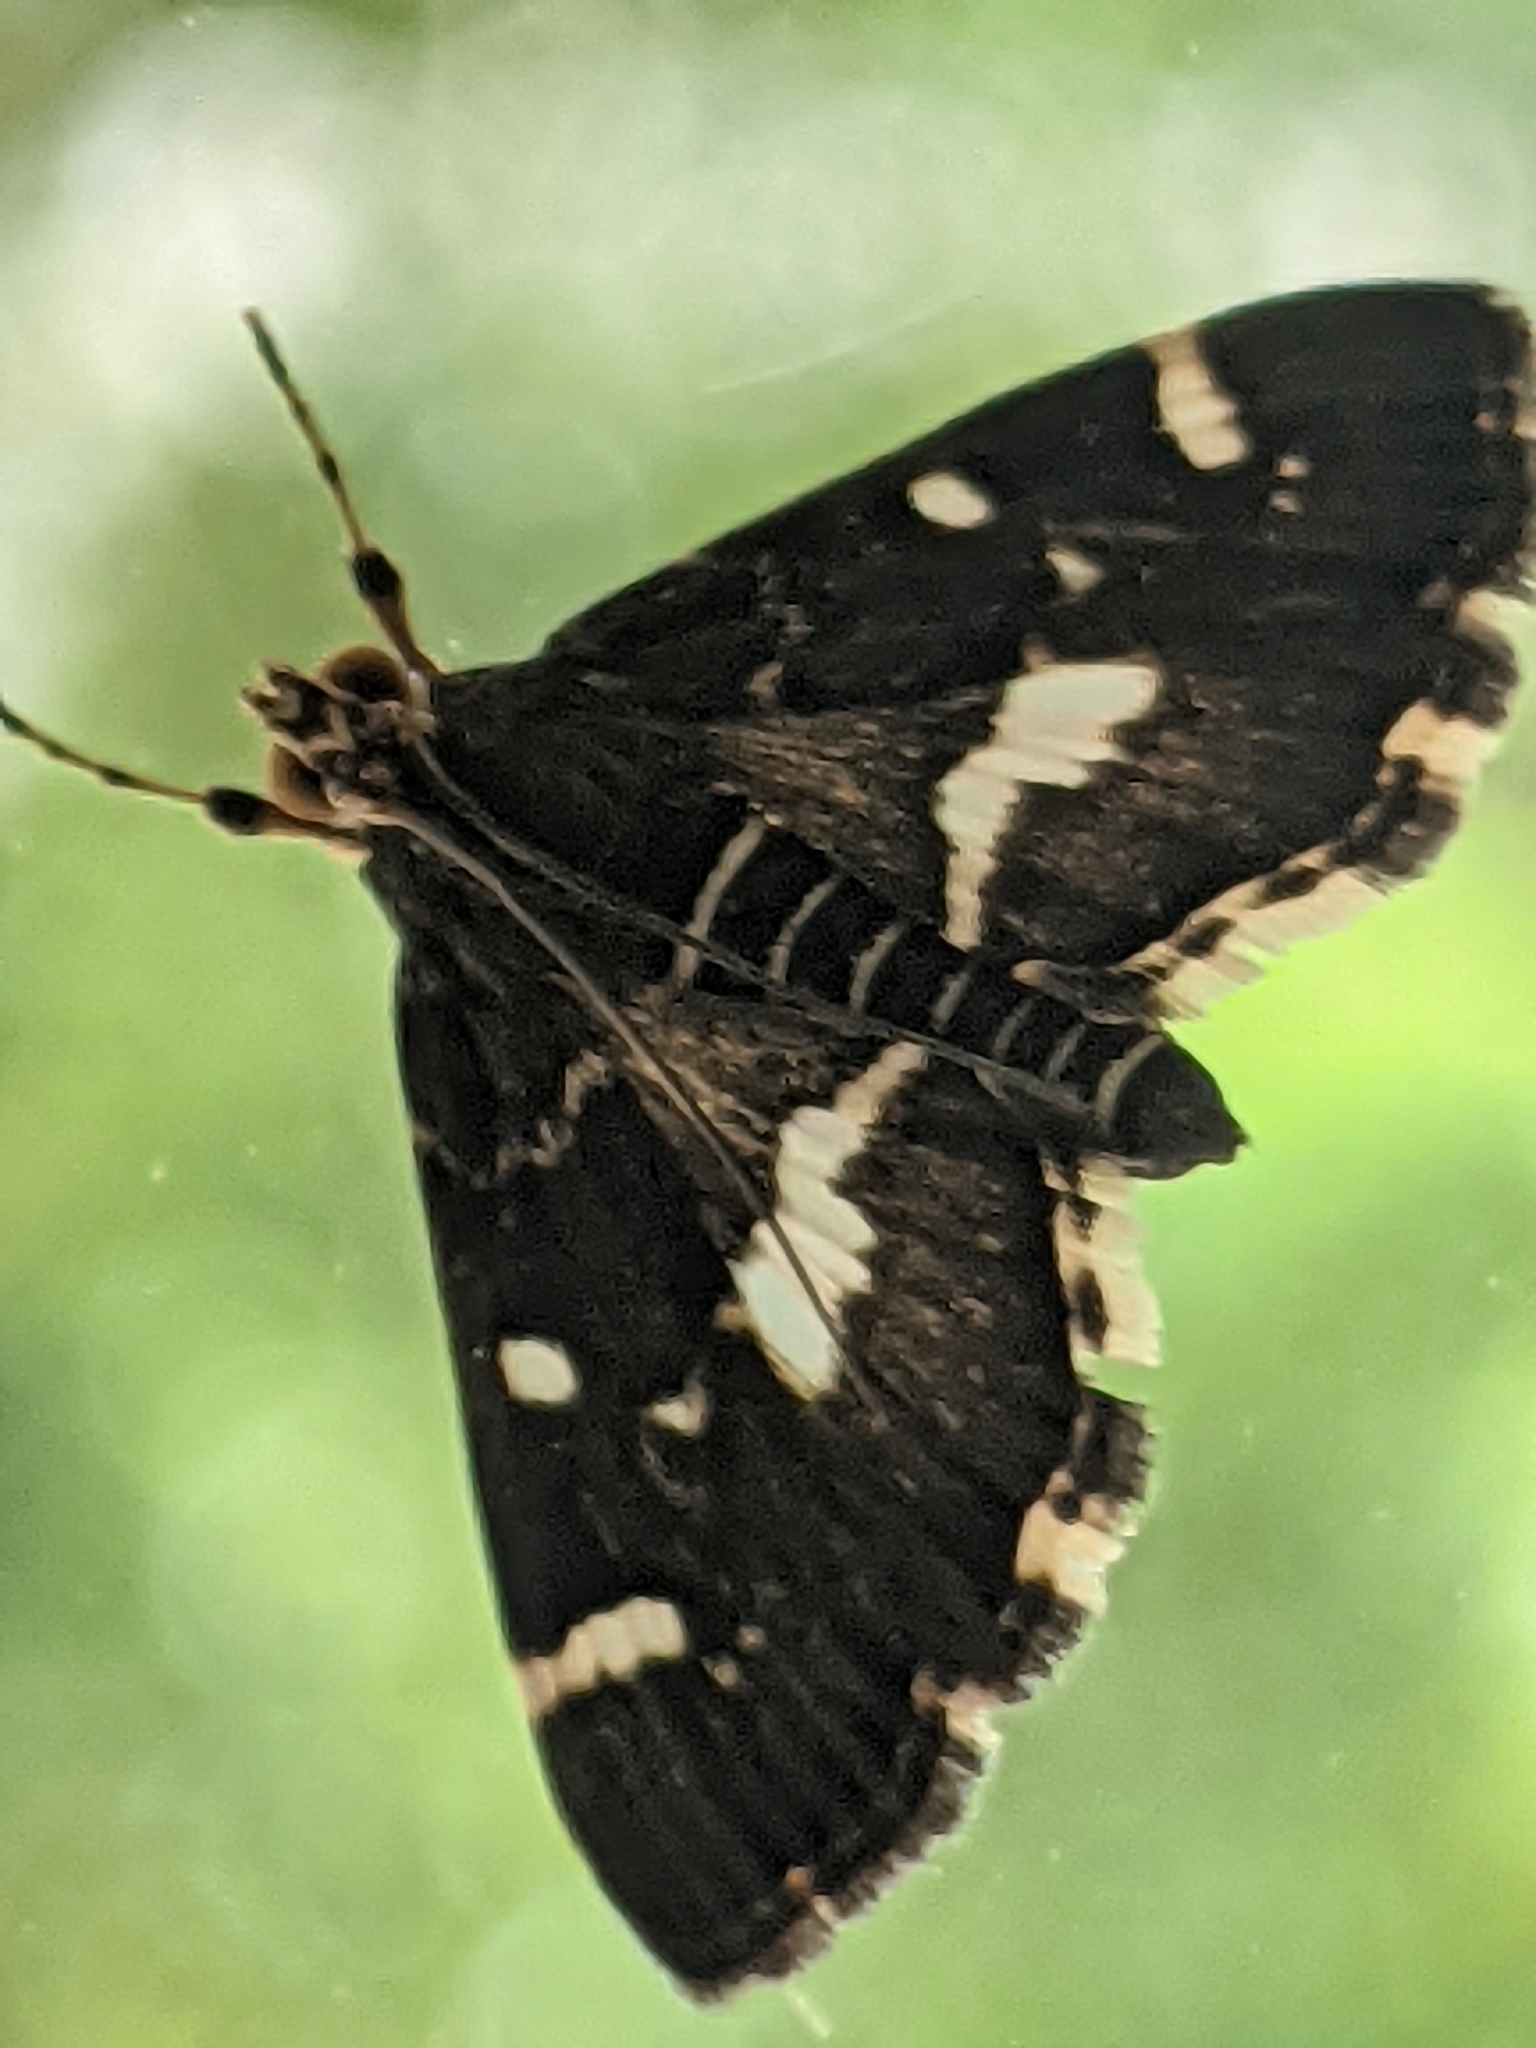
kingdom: Animalia
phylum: Arthropoda
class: Insecta
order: Lepidoptera
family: Crambidae
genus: Hymenia
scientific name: Hymenia perspectalis
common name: Spotted beet webworm
